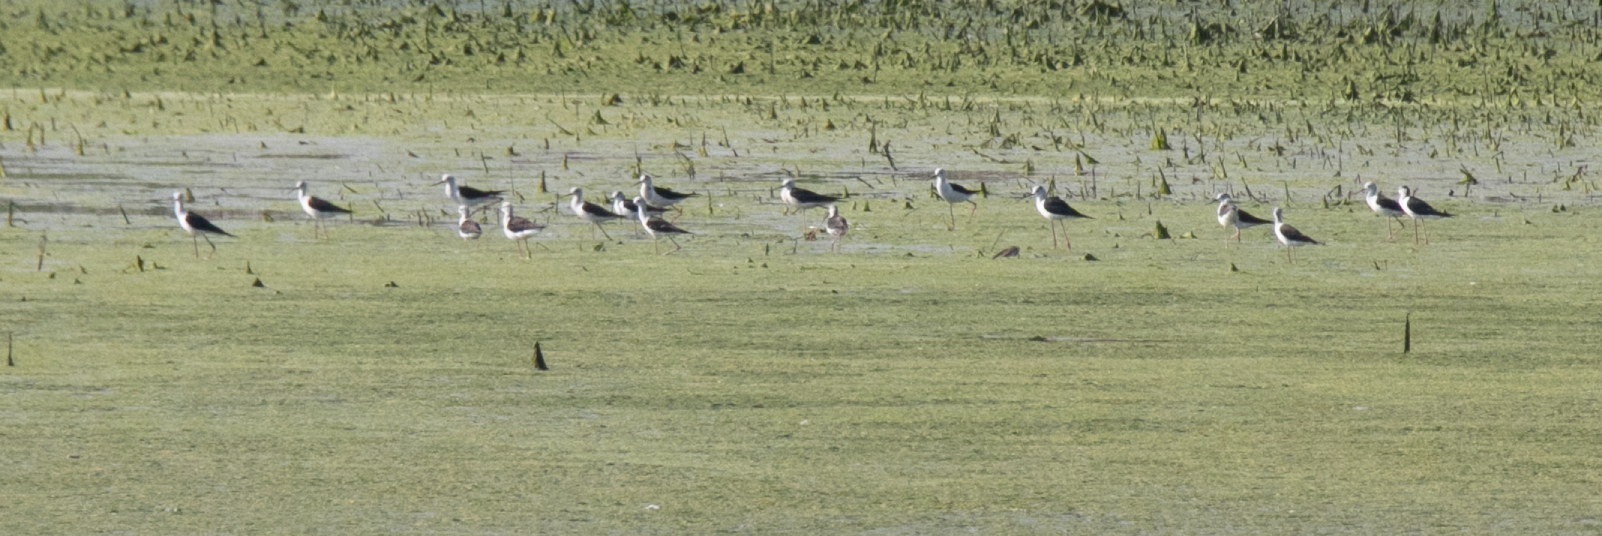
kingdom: Animalia
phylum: Chordata
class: Aves
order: Charadriiformes
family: Recurvirostridae
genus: Himantopus
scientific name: Himantopus himantopus
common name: Black-winged stilt
